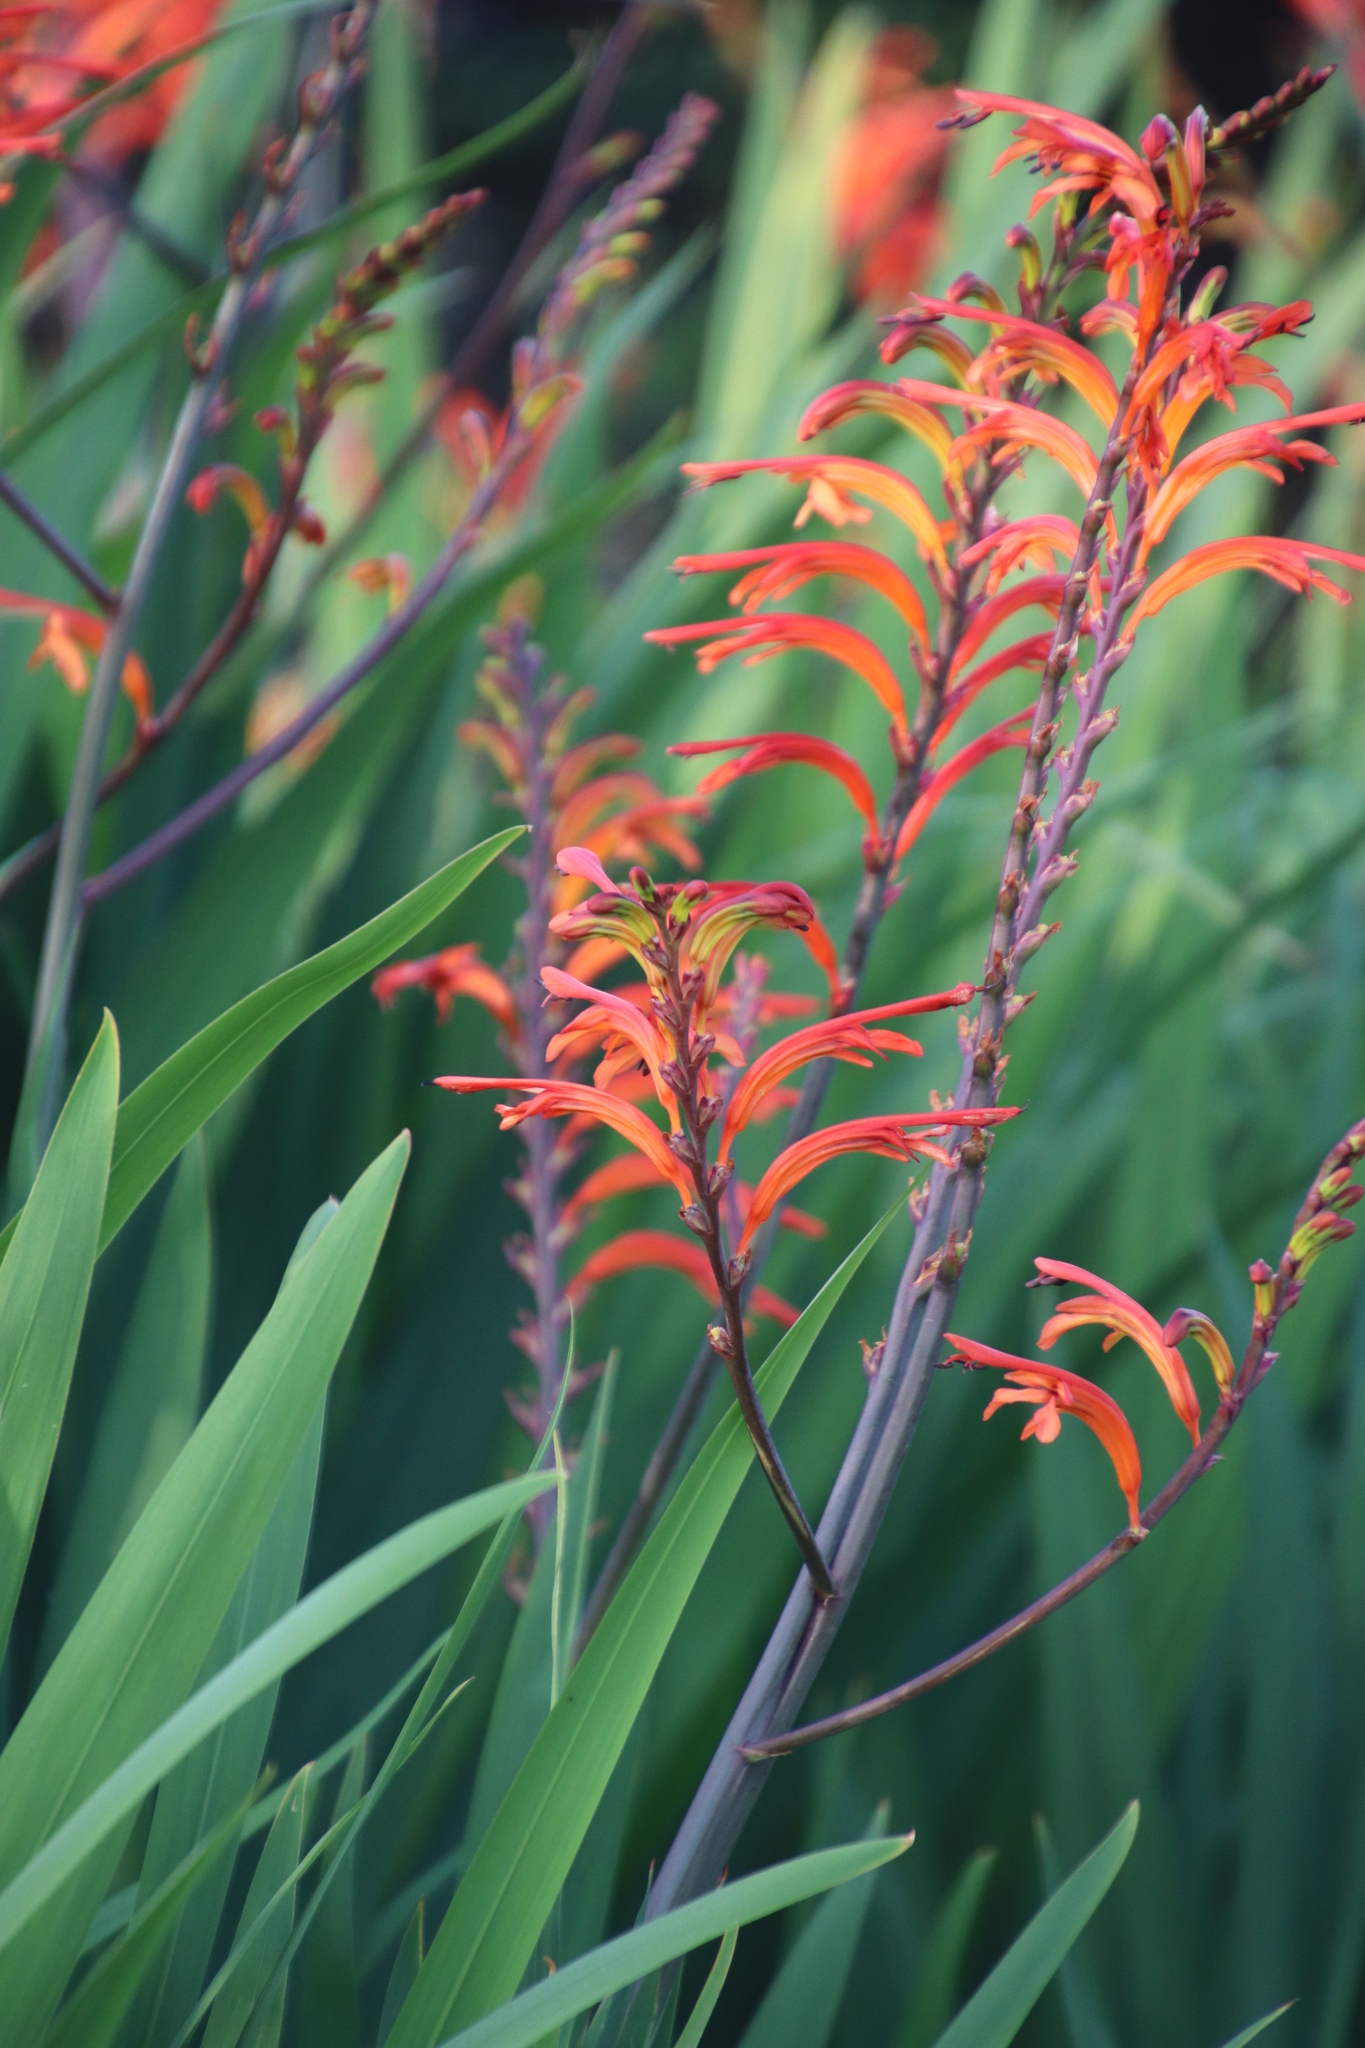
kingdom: Plantae
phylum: Tracheophyta
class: Liliopsida
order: Asparagales
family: Iridaceae
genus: Chasmanthe
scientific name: Chasmanthe floribunda
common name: African cornflag
